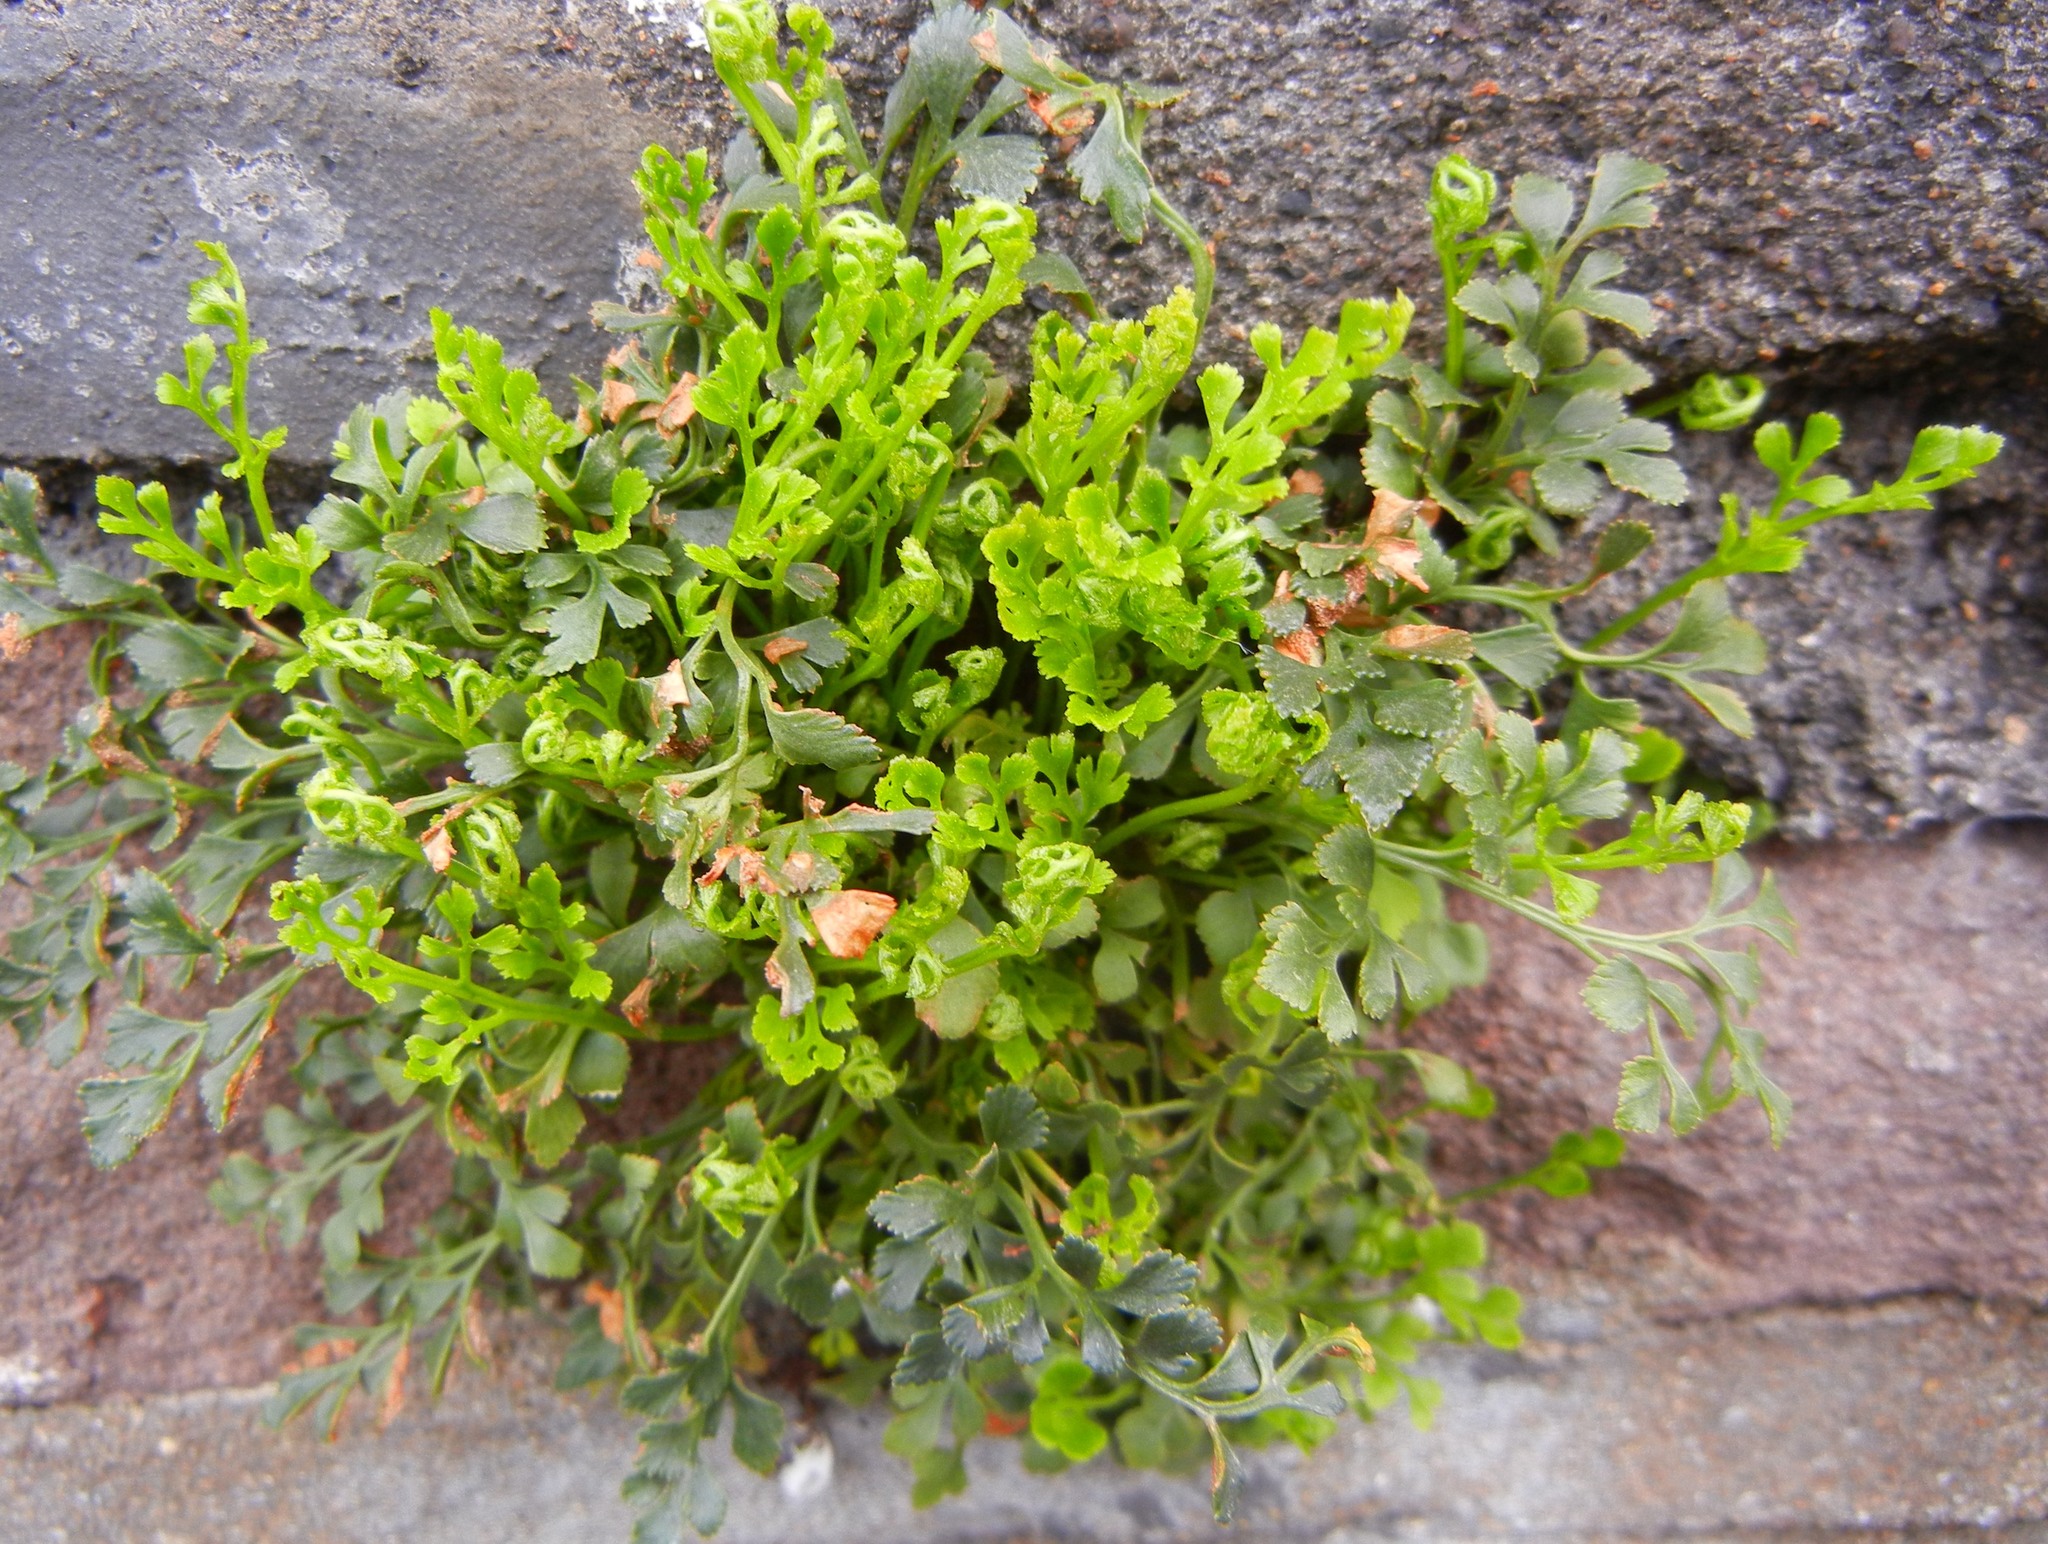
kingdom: Plantae
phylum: Tracheophyta
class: Polypodiopsida
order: Polypodiales
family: Aspleniaceae
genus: Asplenium
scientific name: Asplenium ruta-muraria
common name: Wall-rue
